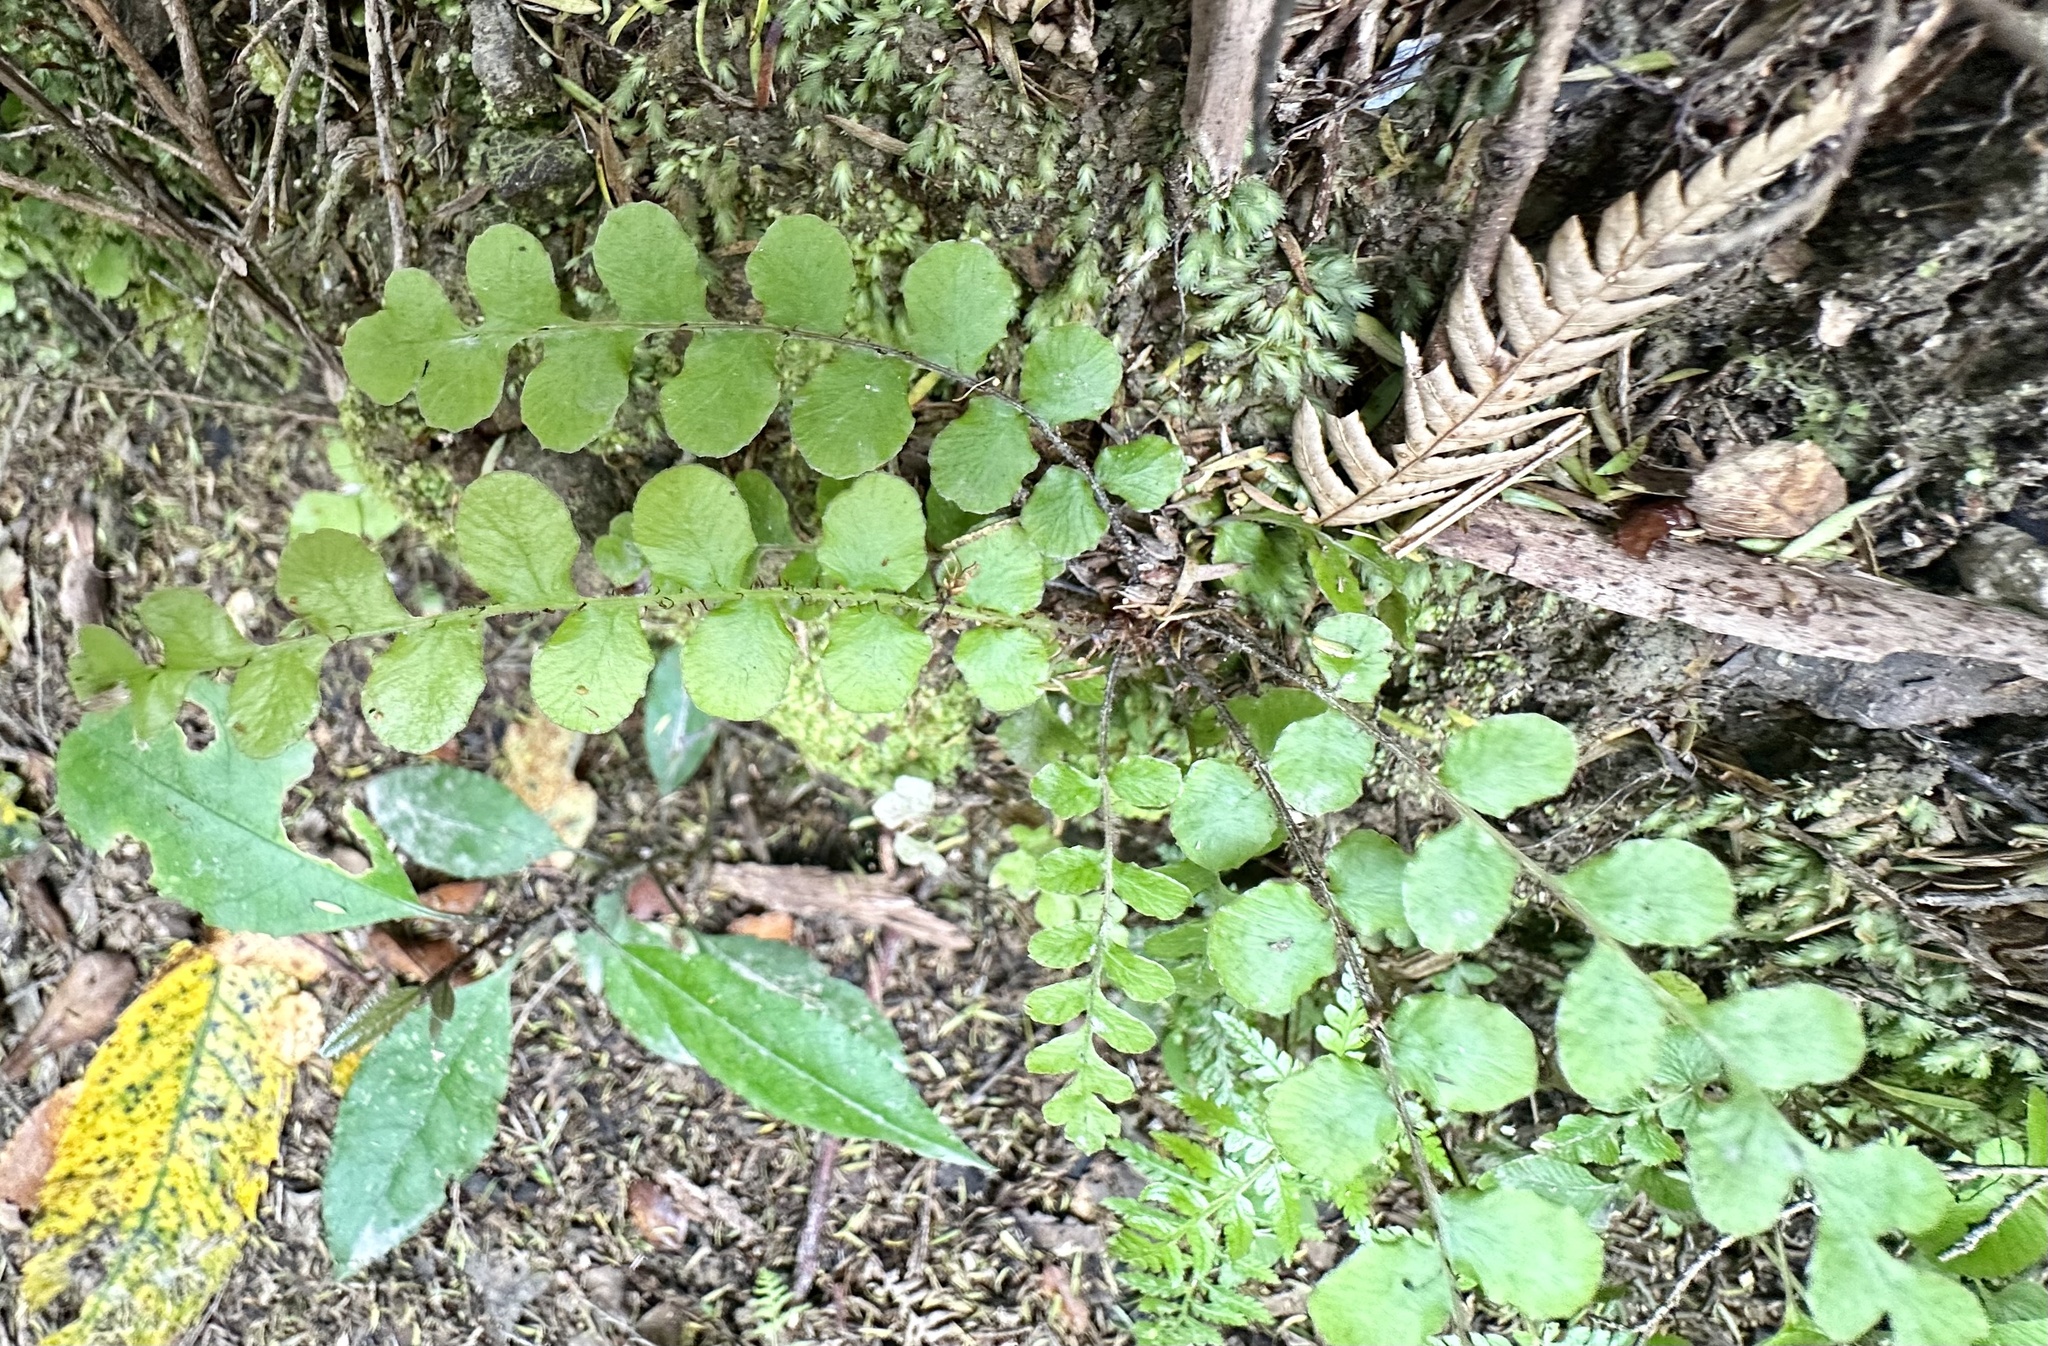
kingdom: Plantae
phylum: Tracheophyta
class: Polypodiopsida
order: Polypodiales
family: Blechnaceae
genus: Cranfillia
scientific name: Cranfillia fluviatilis
